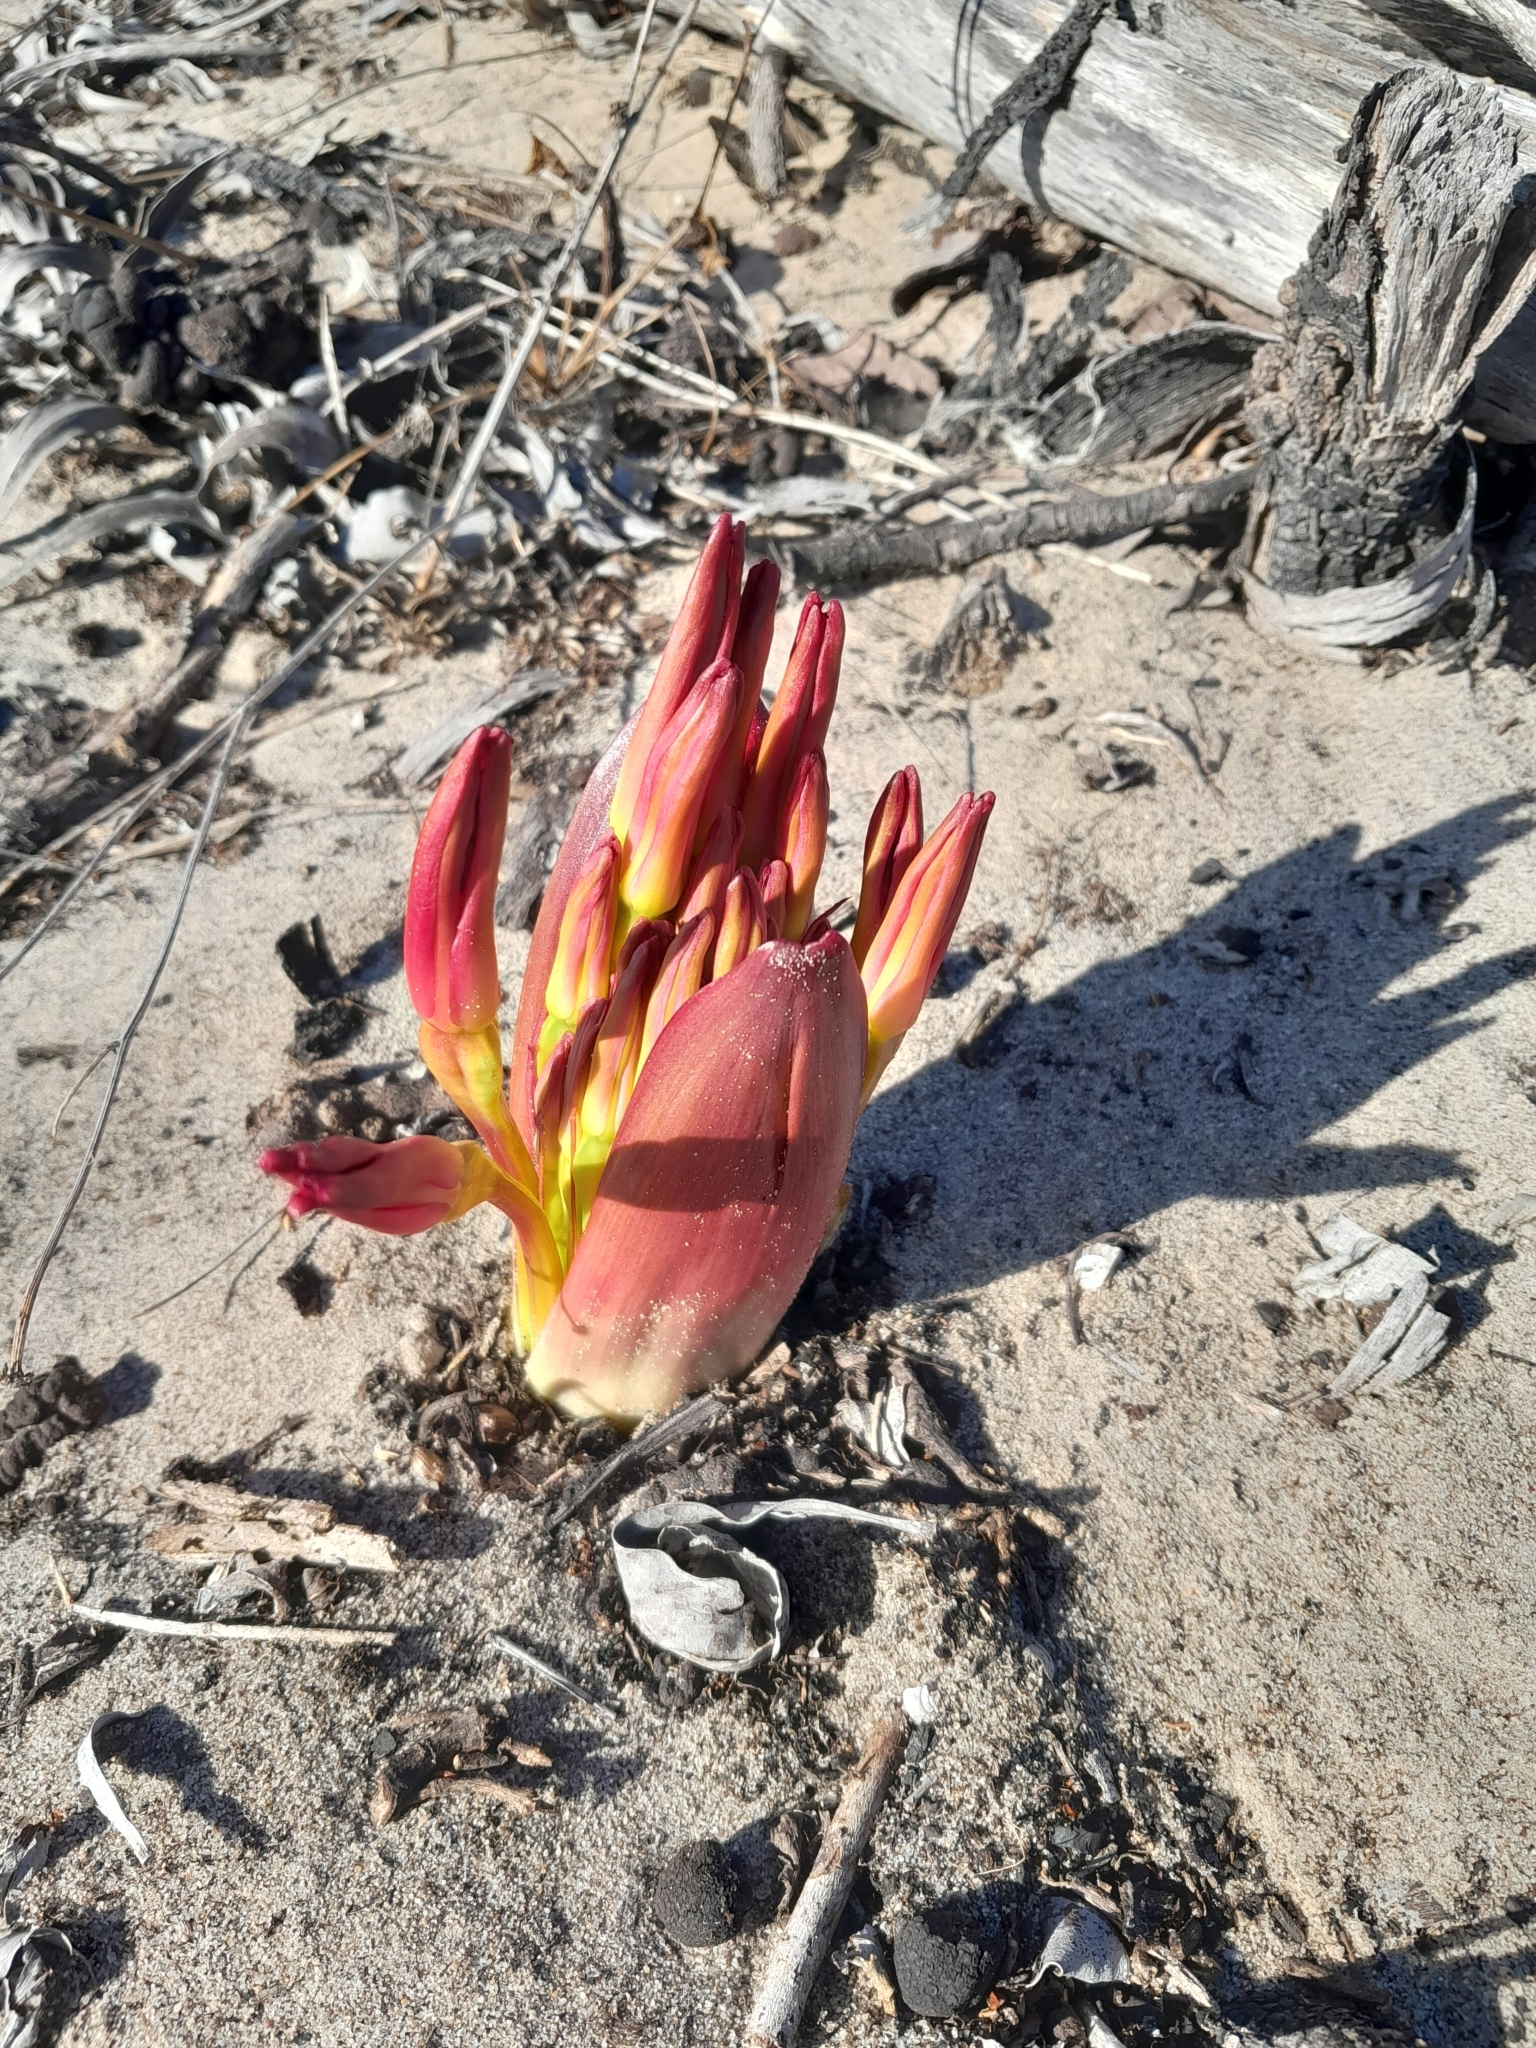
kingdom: Plantae
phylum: Tracheophyta
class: Liliopsida
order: Asparagales
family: Amaryllidaceae
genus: Brunsvigia
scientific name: Brunsvigia orientalis
